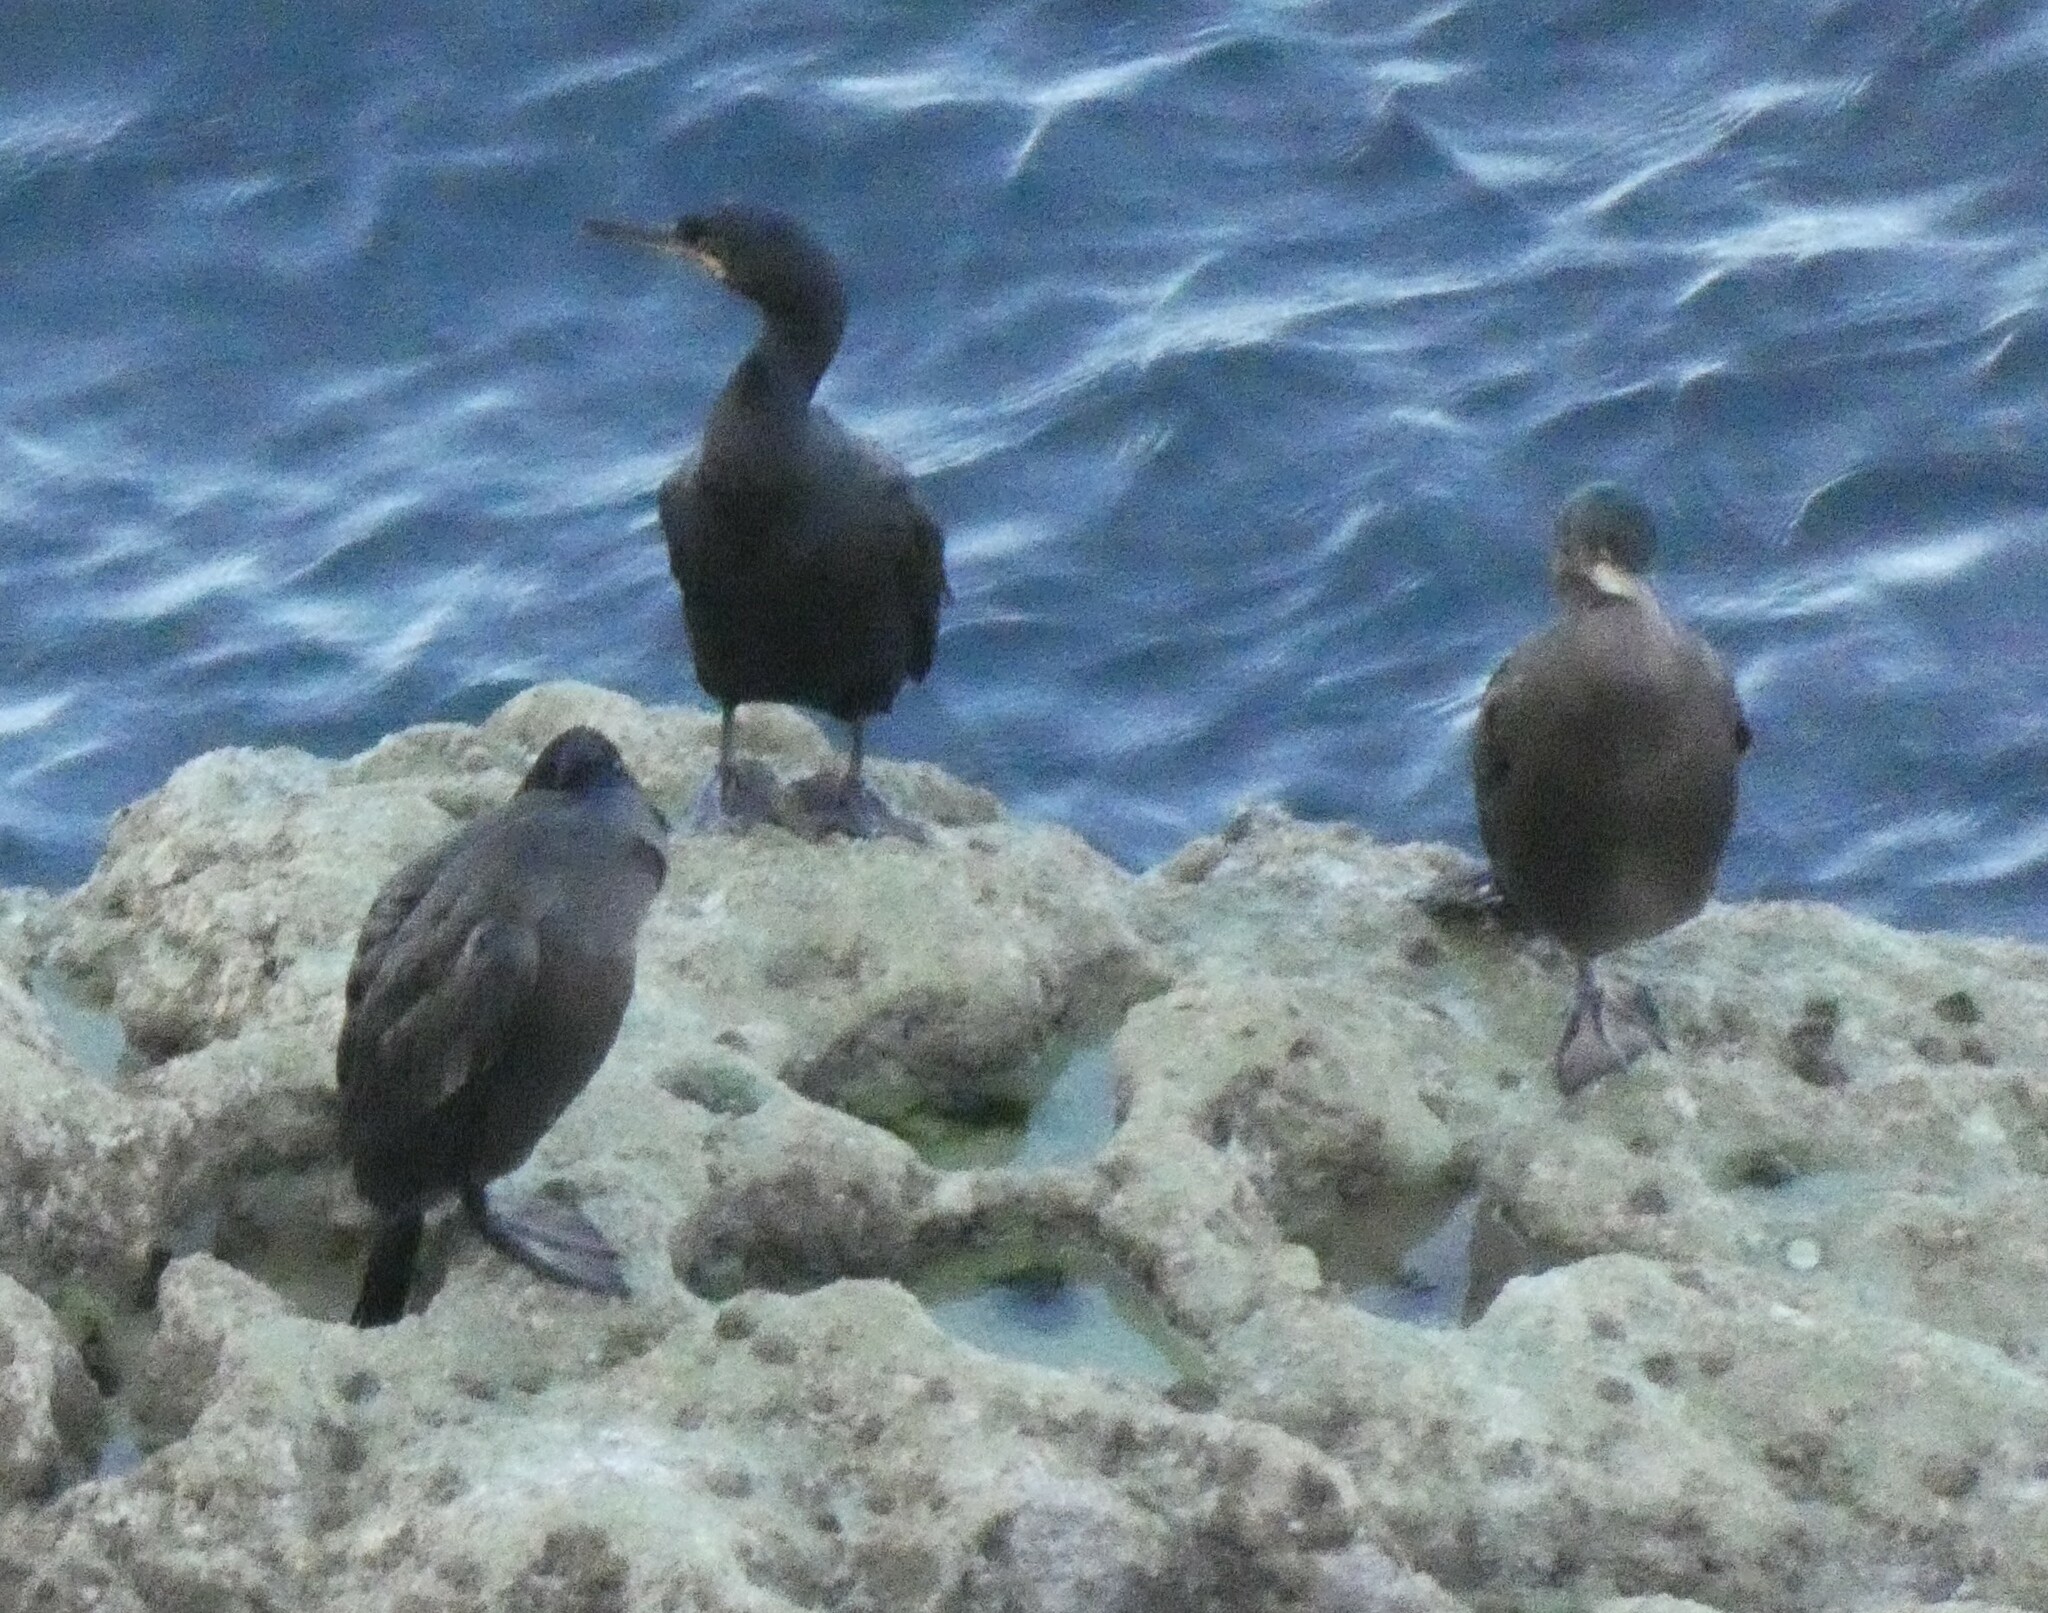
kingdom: Animalia
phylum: Chordata
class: Aves
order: Suliformes
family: Phalacrocoracidae
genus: Phalacrocorax
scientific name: Phalacrocorax aristotelis
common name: European shag
